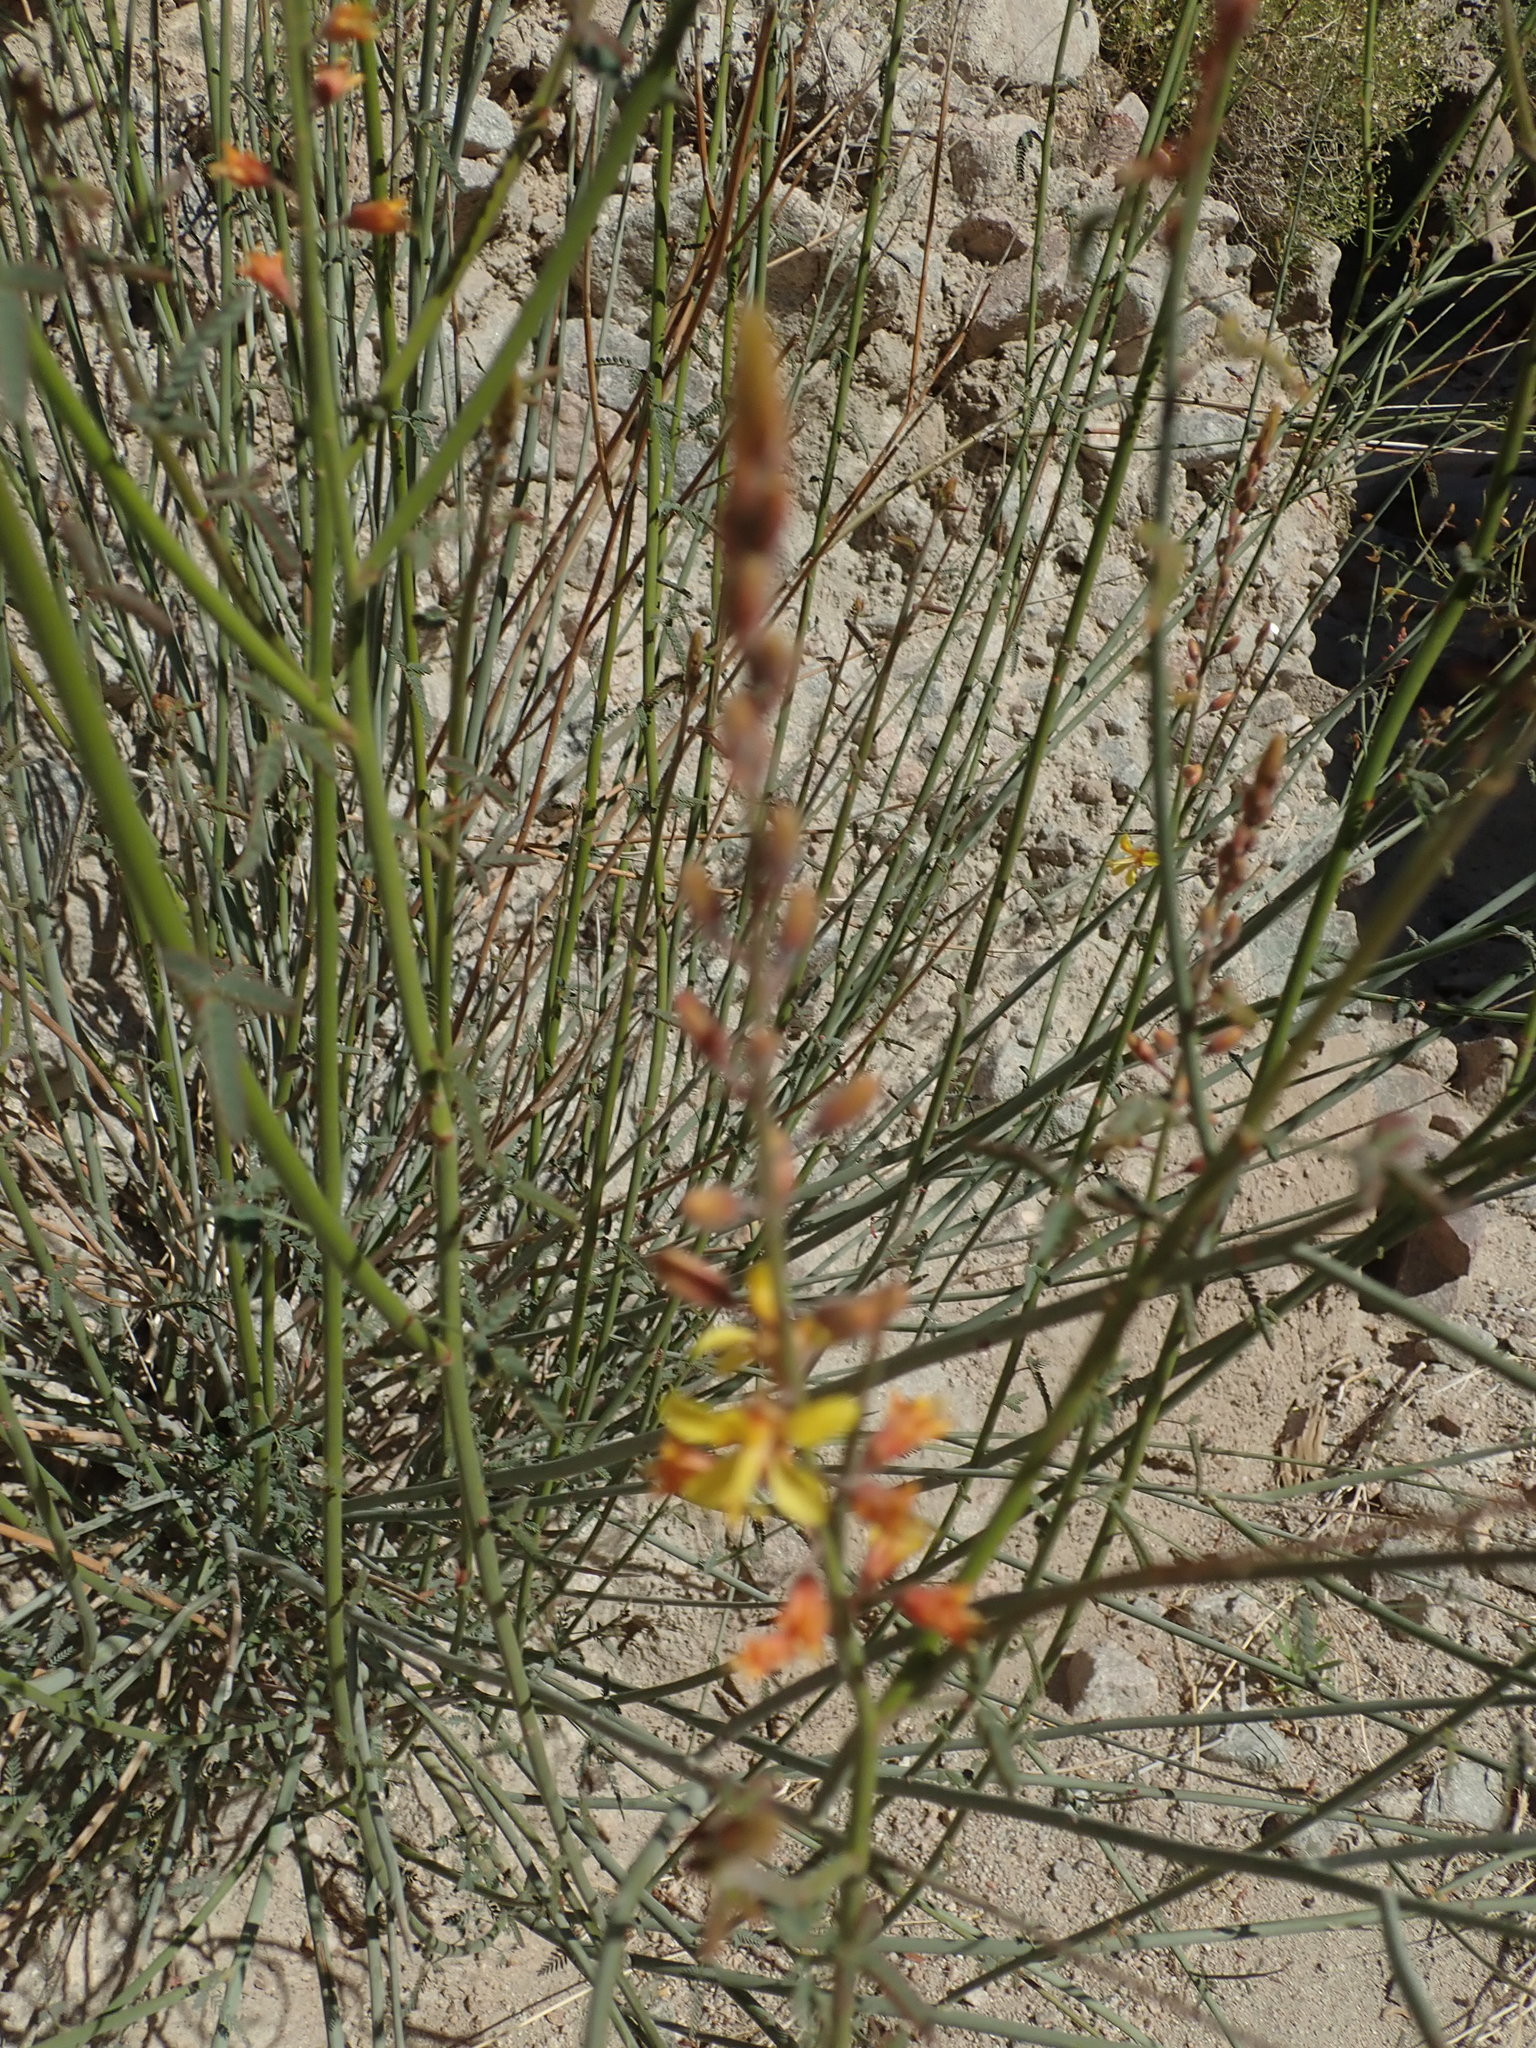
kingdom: Plantae
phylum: Tracheophyta
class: Magnoliopsida
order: Fabales
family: Fabaceae
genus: Hoffmannseggia
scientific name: Hoffmannseggia microphylla
